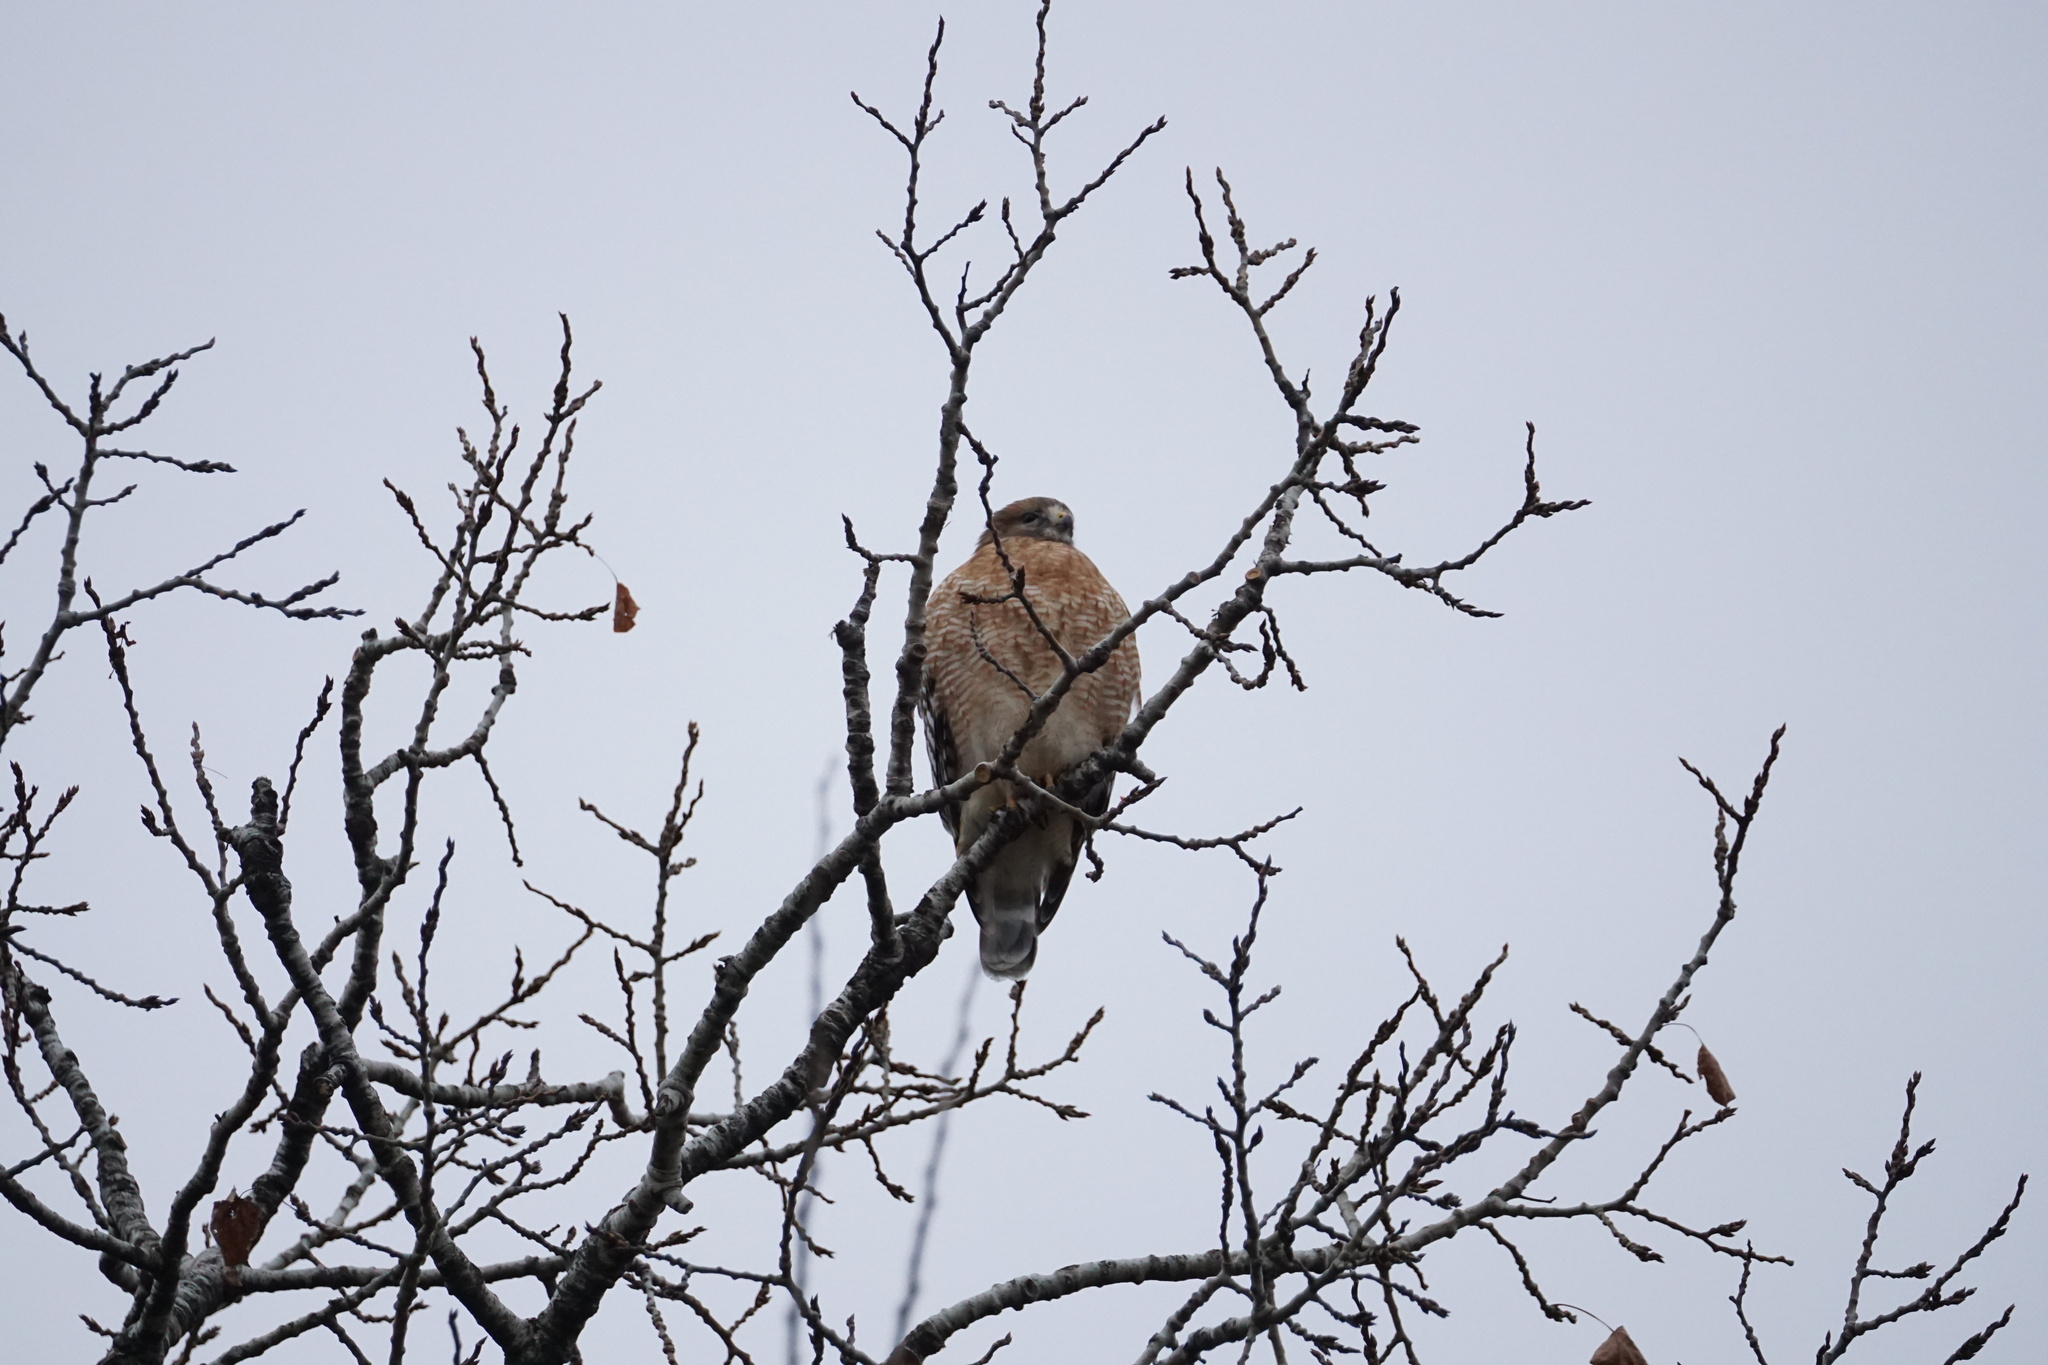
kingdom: Animalia
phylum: Chordata
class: Aves
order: Accipitriformes
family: Accipitridae
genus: Buteo
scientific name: Buteo lineatus
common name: Red-shouldered hawk
